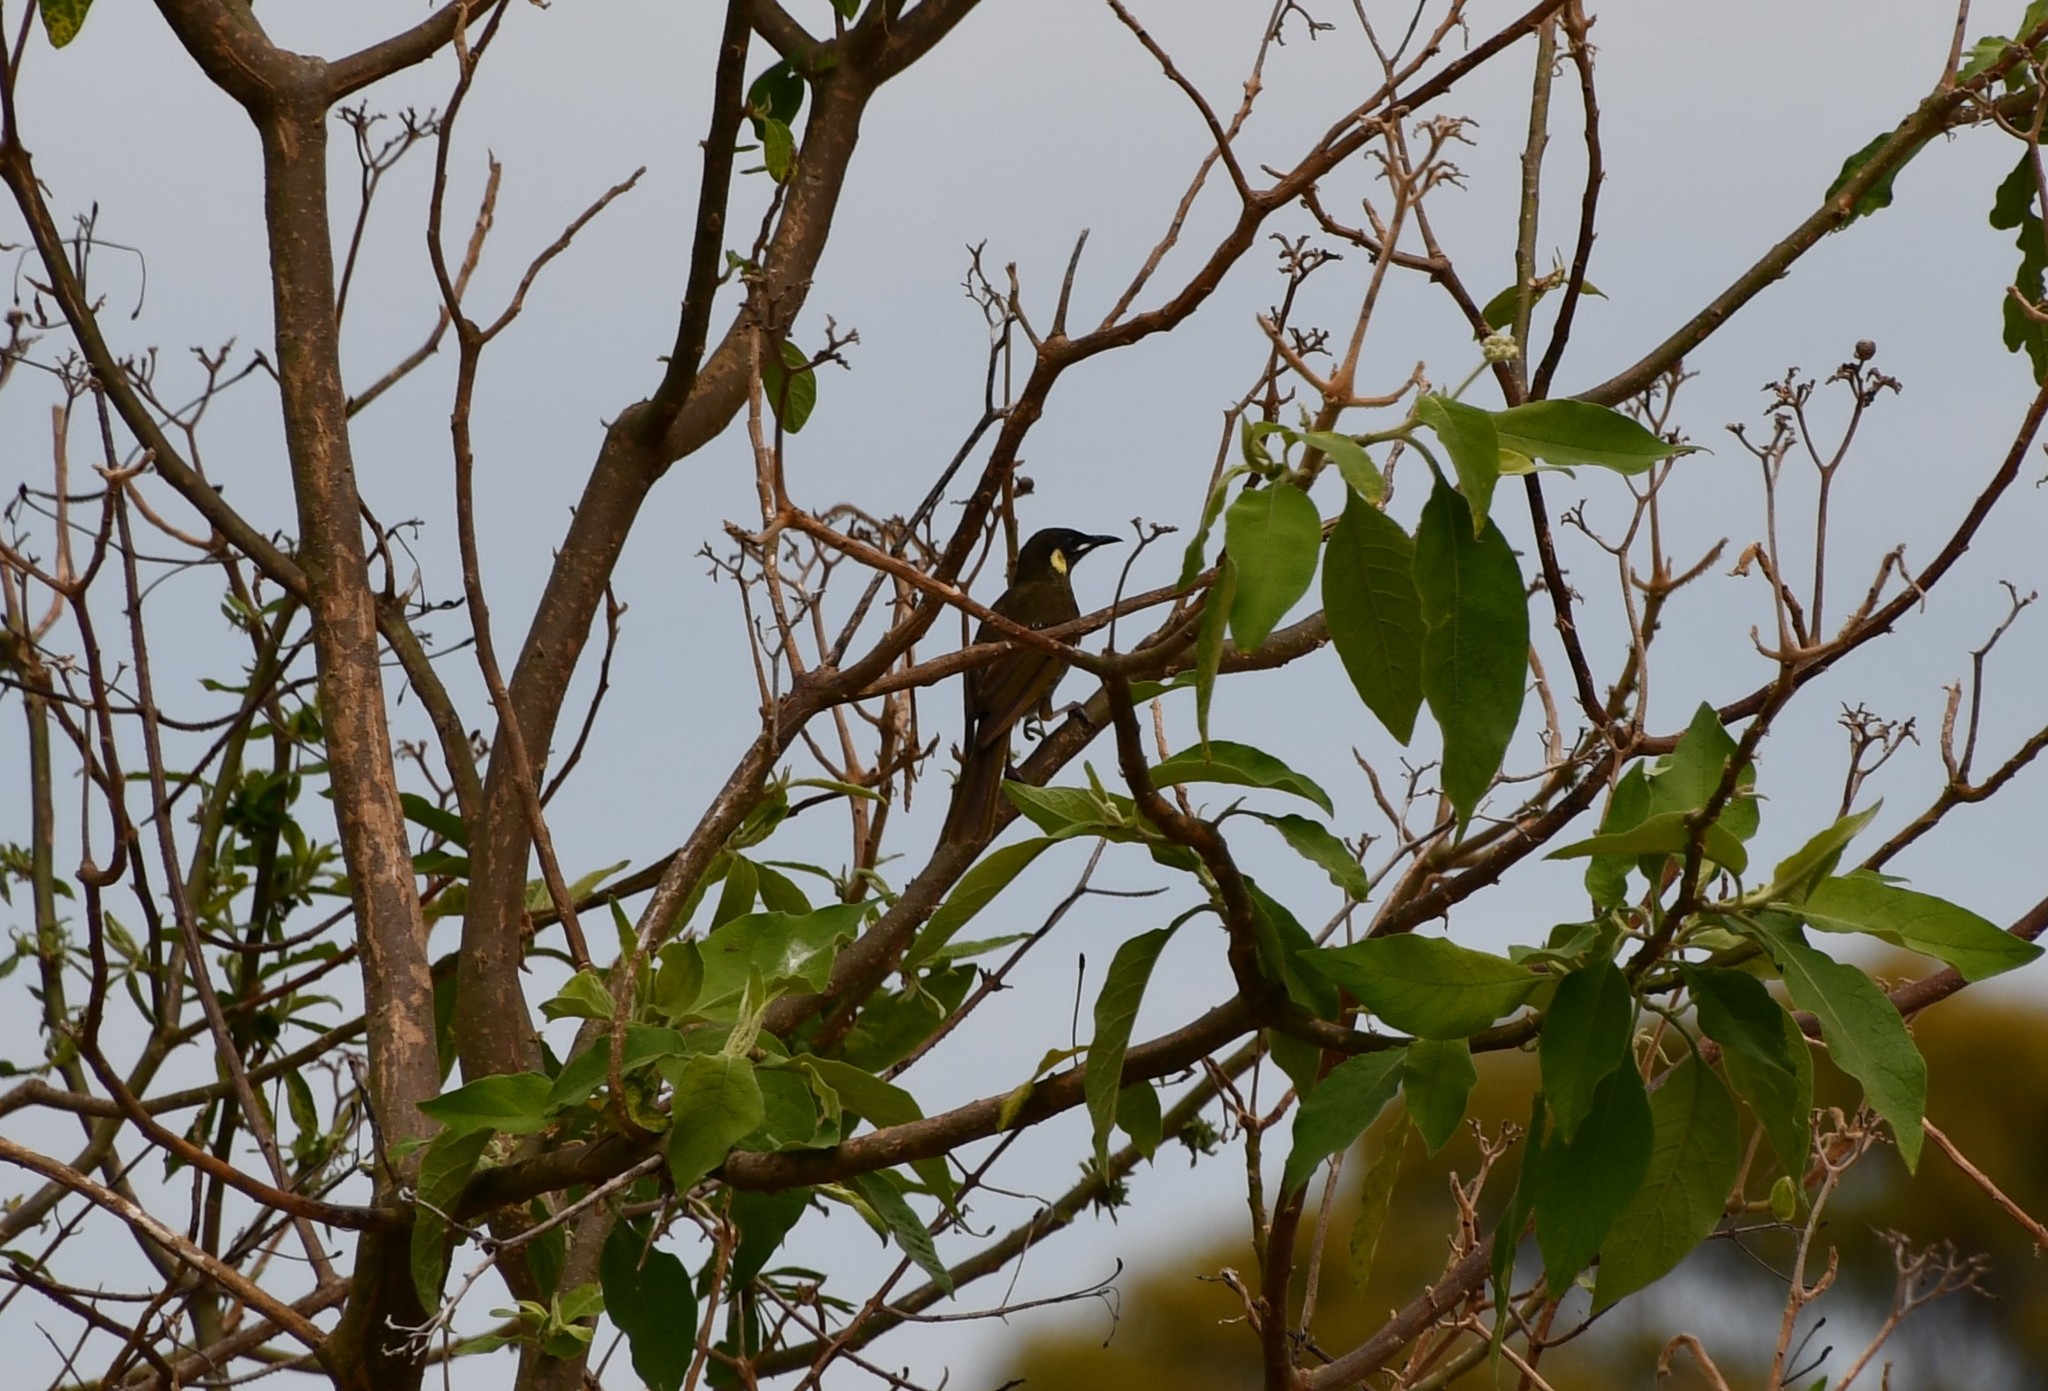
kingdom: Animalia
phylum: Chordata
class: Aves
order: Passeriformes
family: Meliphagidae
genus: Meliphaga
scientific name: Meliphaga lewinii
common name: Lewin's honeyeater
